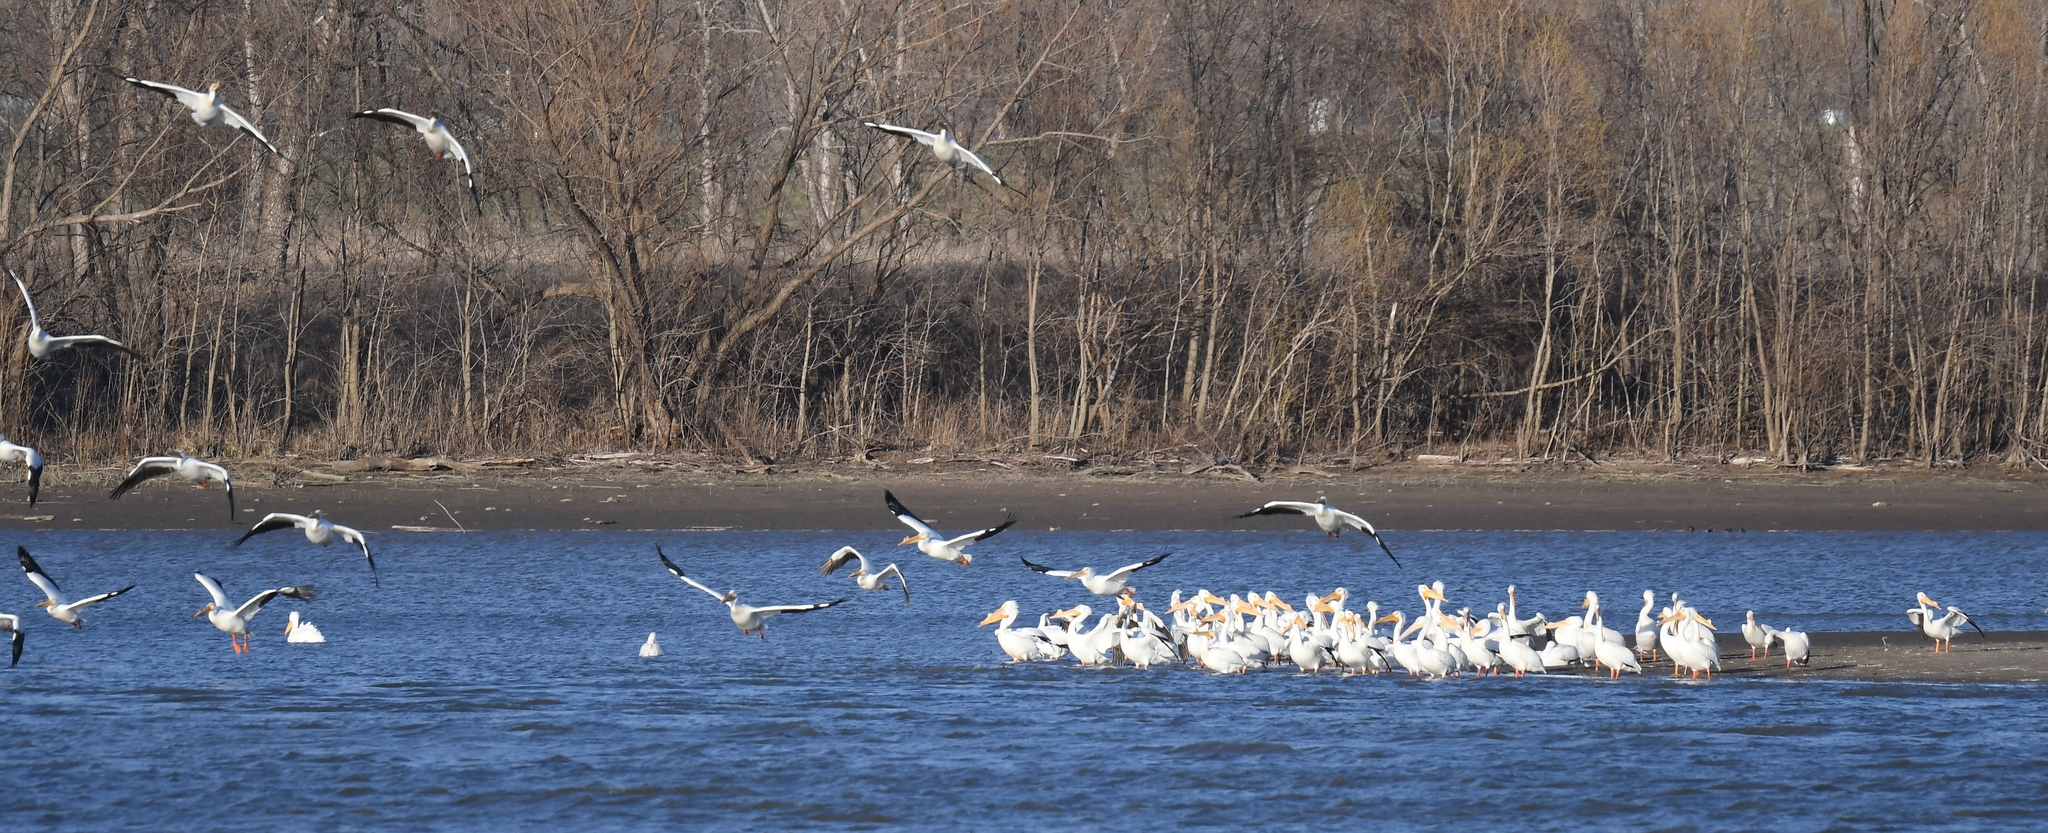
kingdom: Animalia
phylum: Chordata
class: Aves
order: Pelecaniformes
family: Pelecanidae
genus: Pelecanus
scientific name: Pelecanus erythrorhynchos
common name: American white pelican
